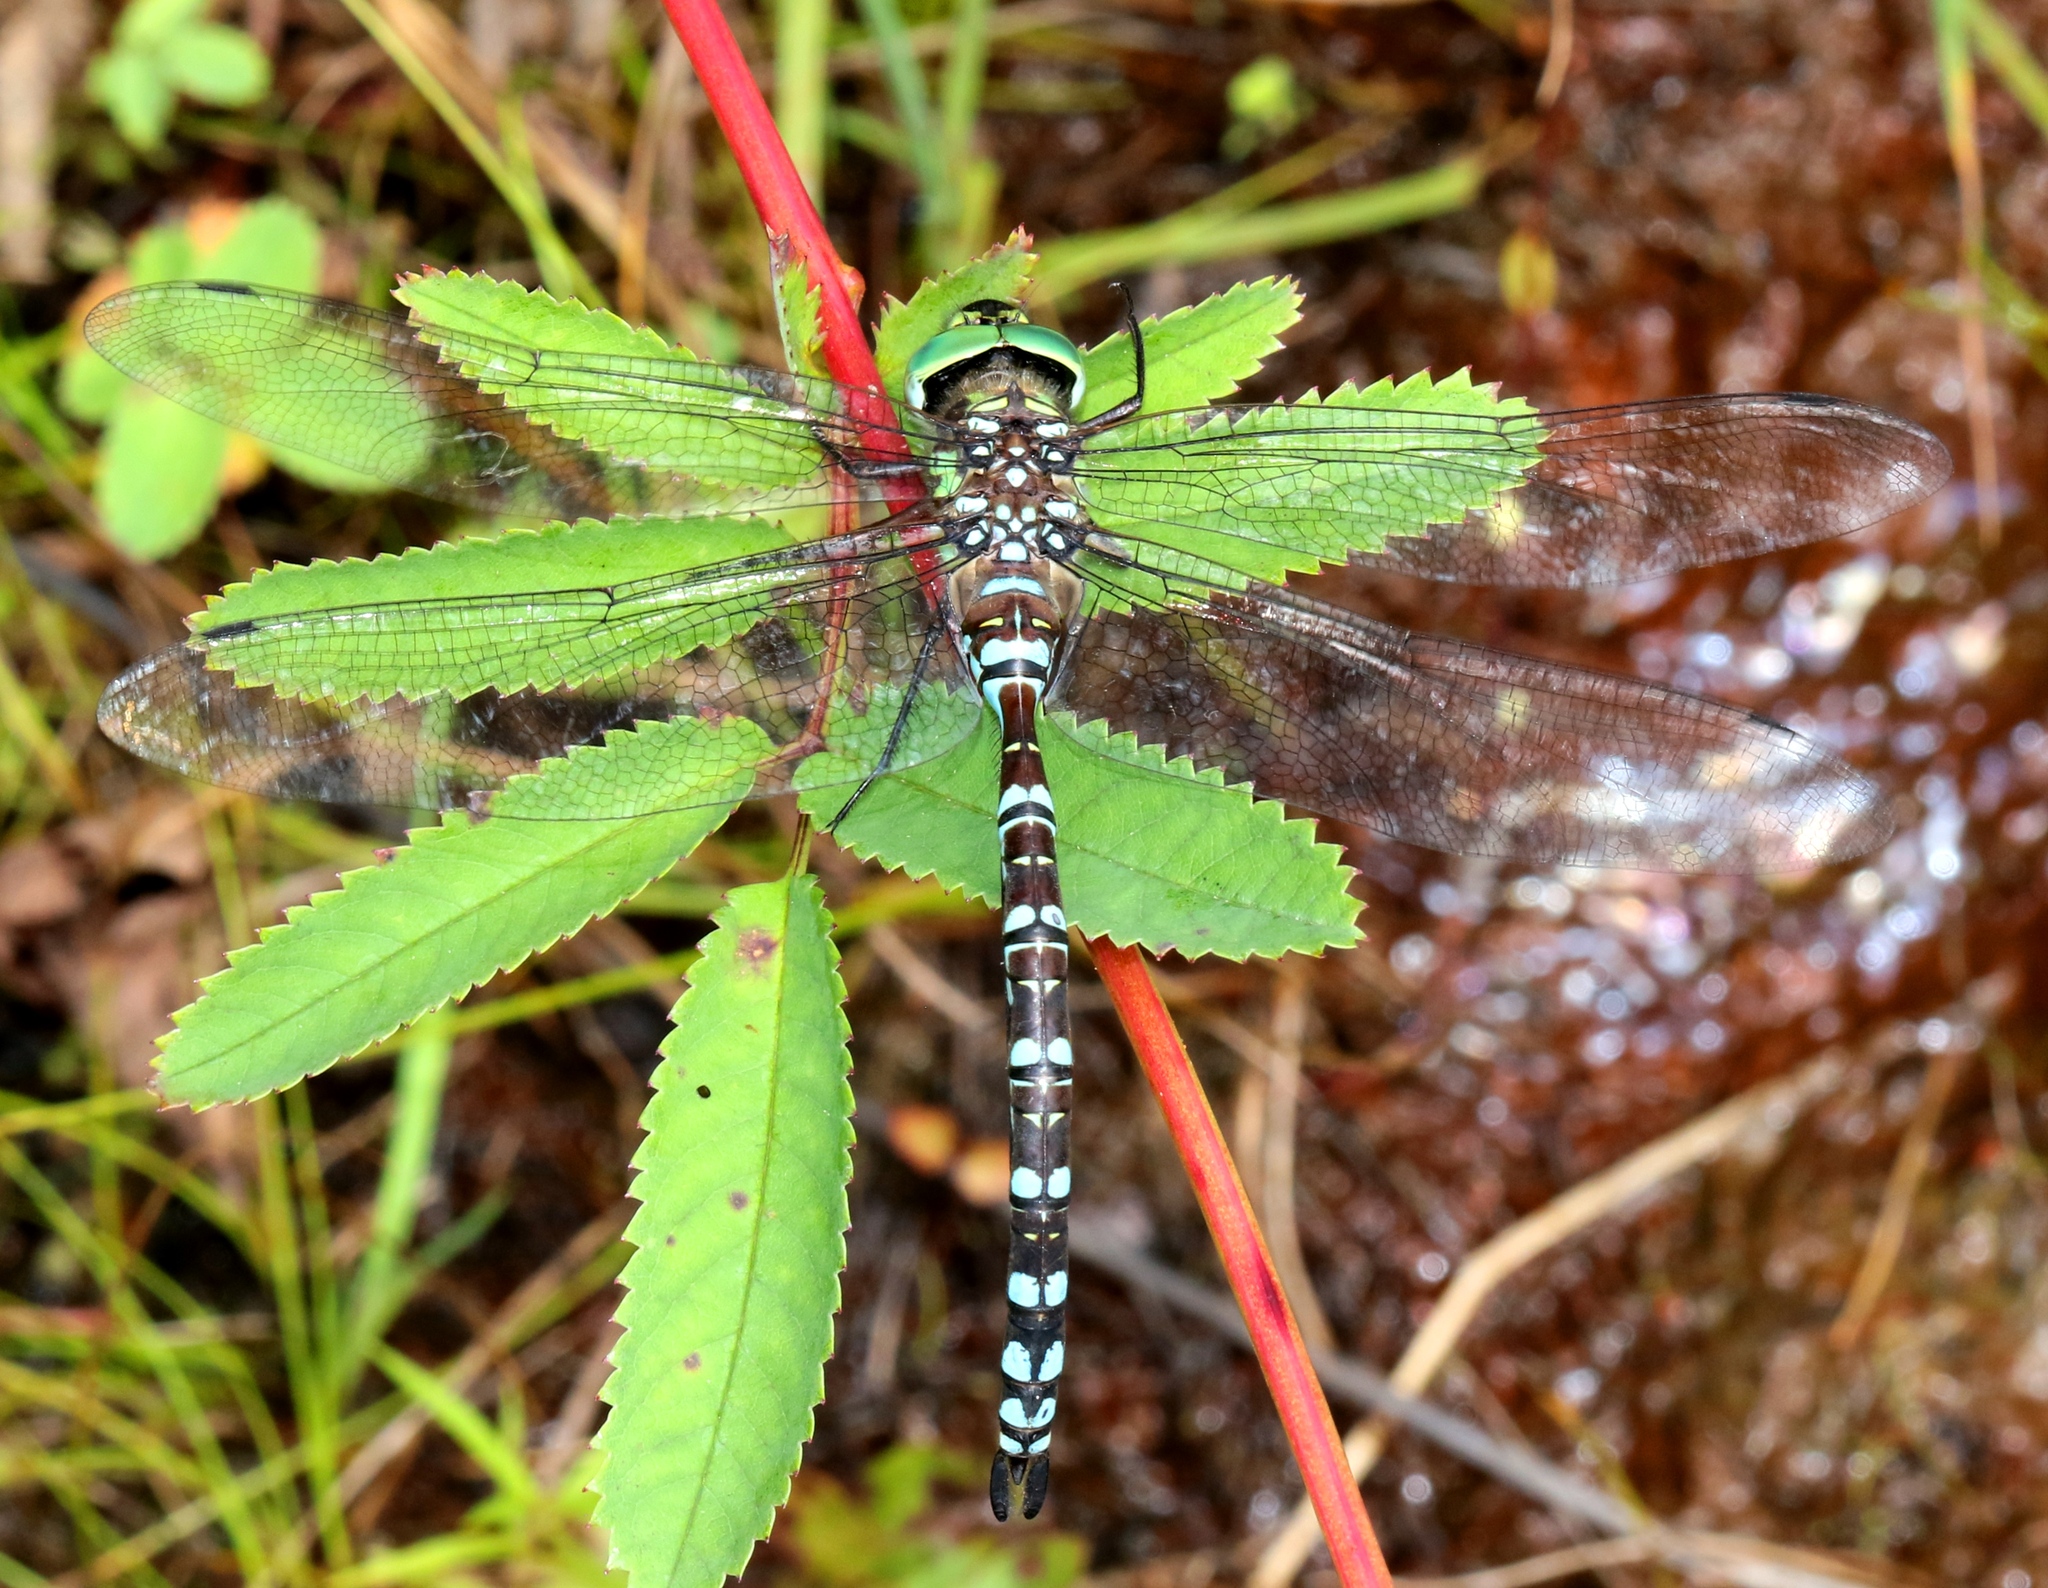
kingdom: Animalia
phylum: Arthropoda
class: Insecta
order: Odonata
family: Aeshnidae
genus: Aeshna
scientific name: Aeshna verticalis
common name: Green-striped darner
